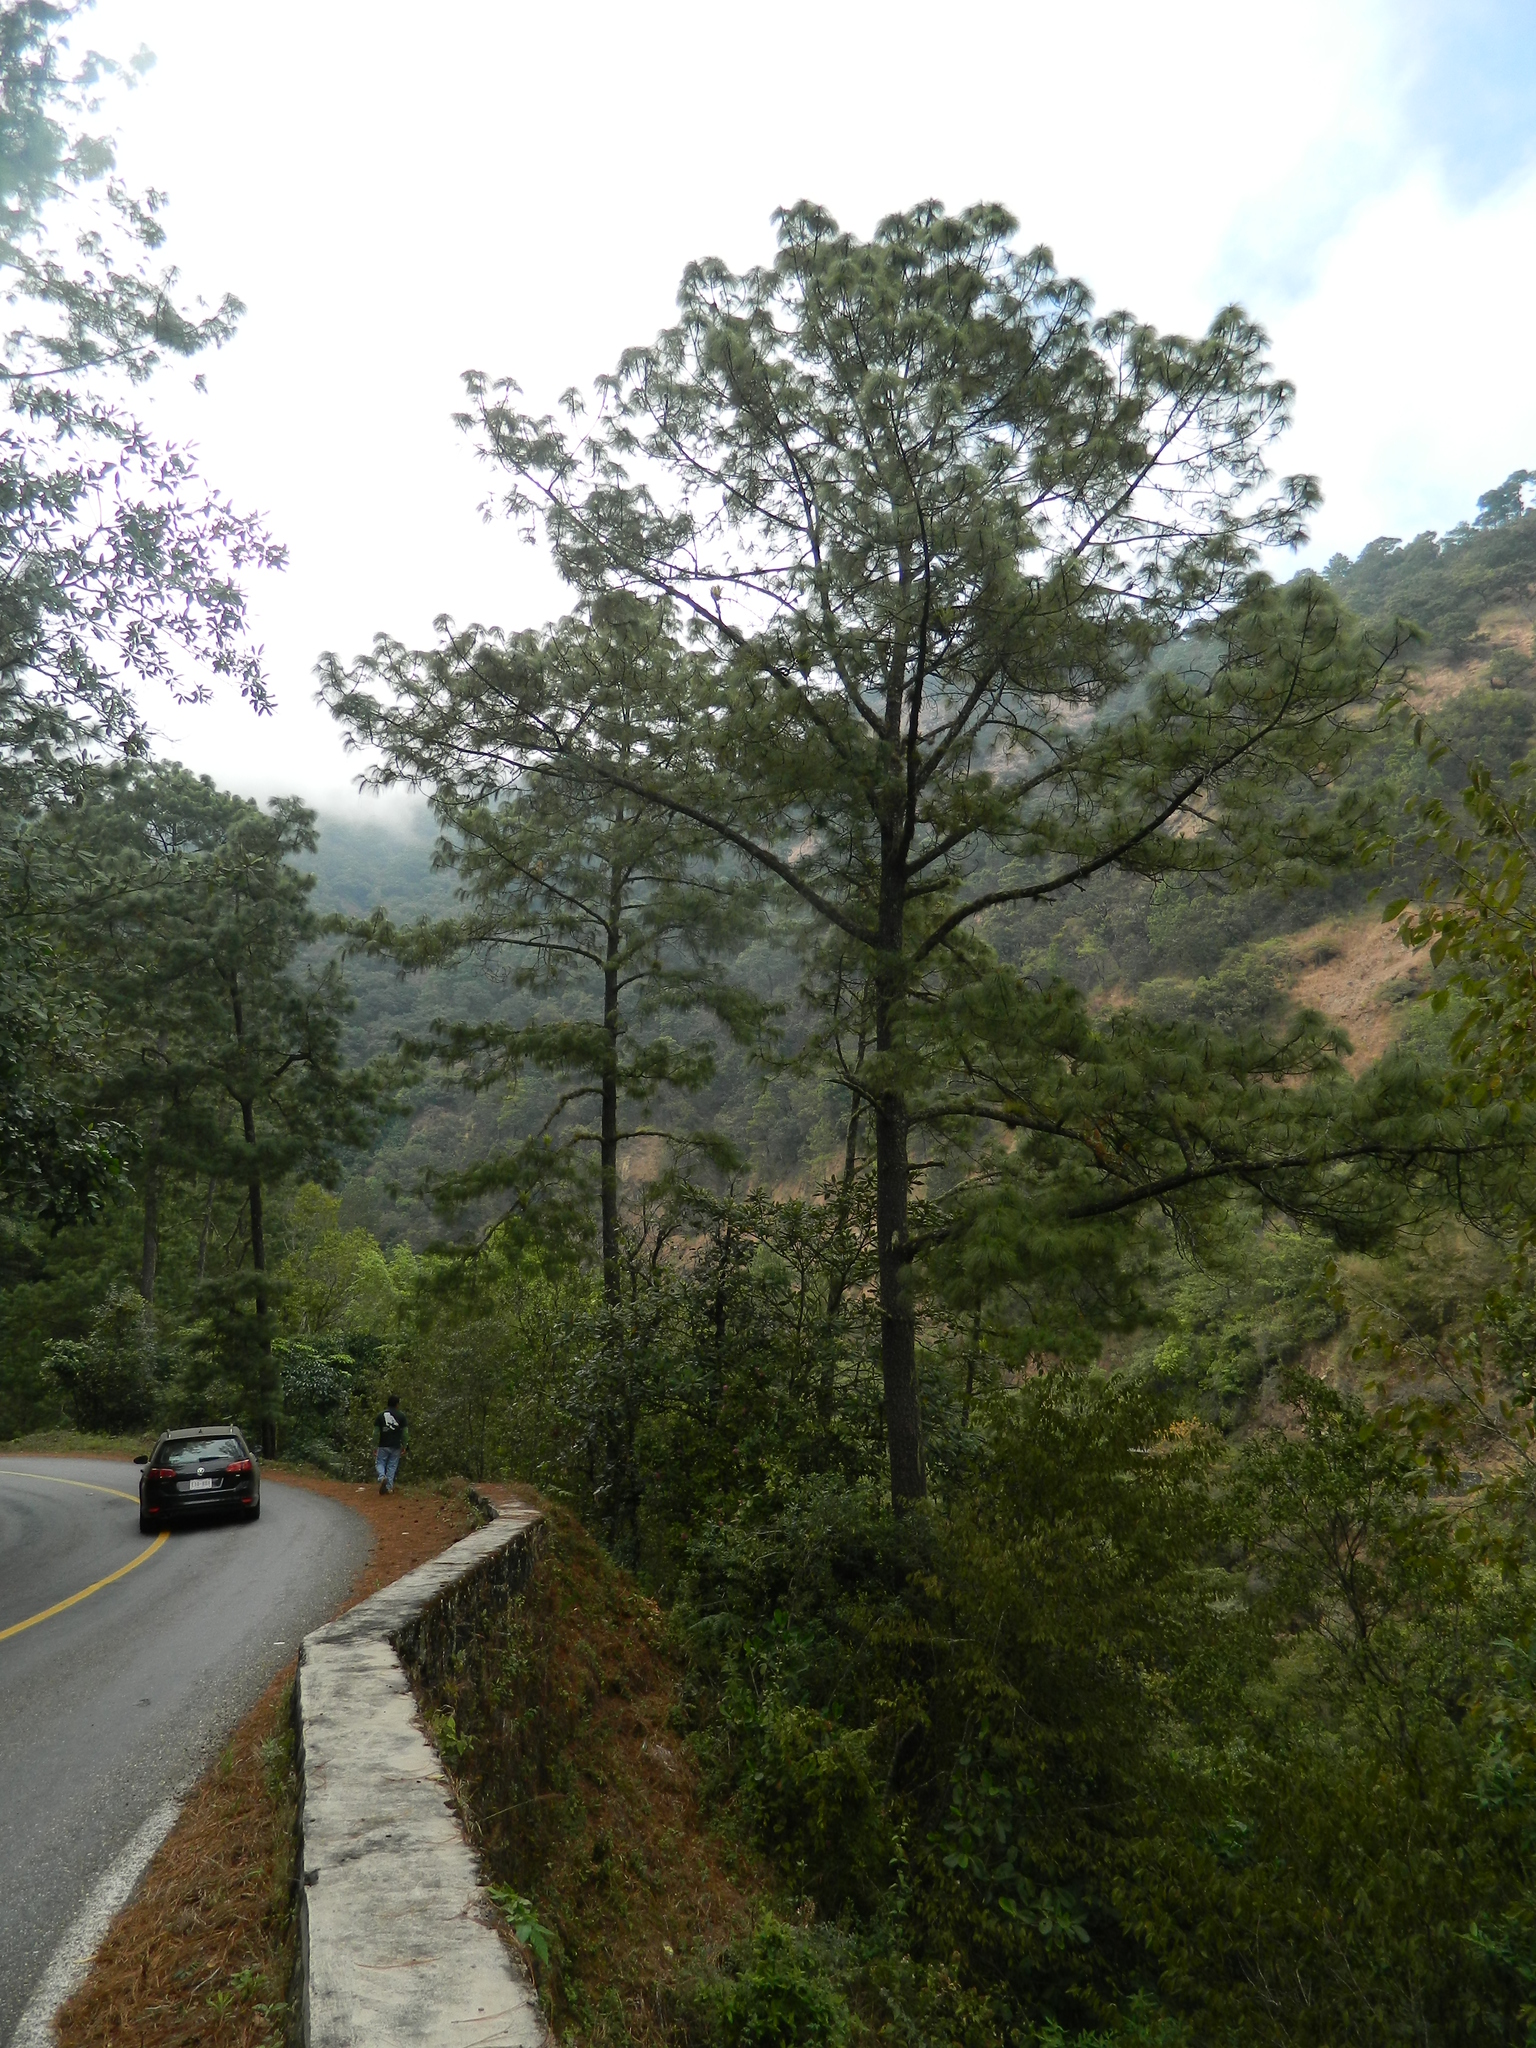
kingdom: Plantae
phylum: Tracheophyta
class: Pinopsida
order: Pinales
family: Pinaceae
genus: Pinus
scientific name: Pinus pseudostrobus
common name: False weymouth pine
